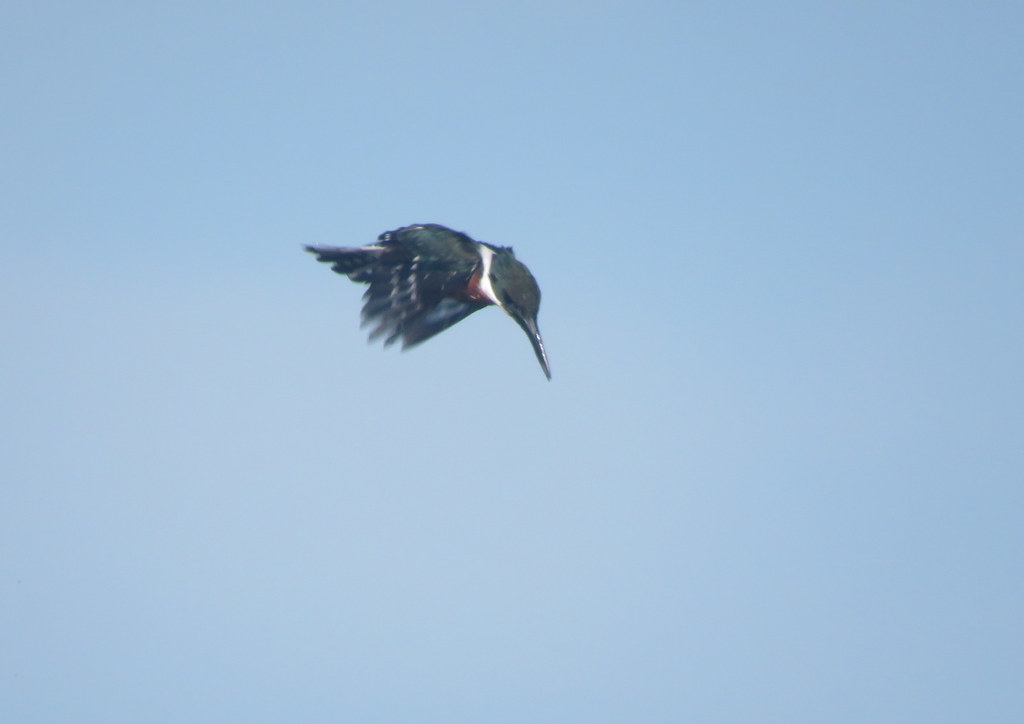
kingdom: Animalia
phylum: Chordata
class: Aves
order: Coraciiformes
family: Alcedinidae
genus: Chloroceryle
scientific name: Chloroceryle amazona
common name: Amazon kingfisher
